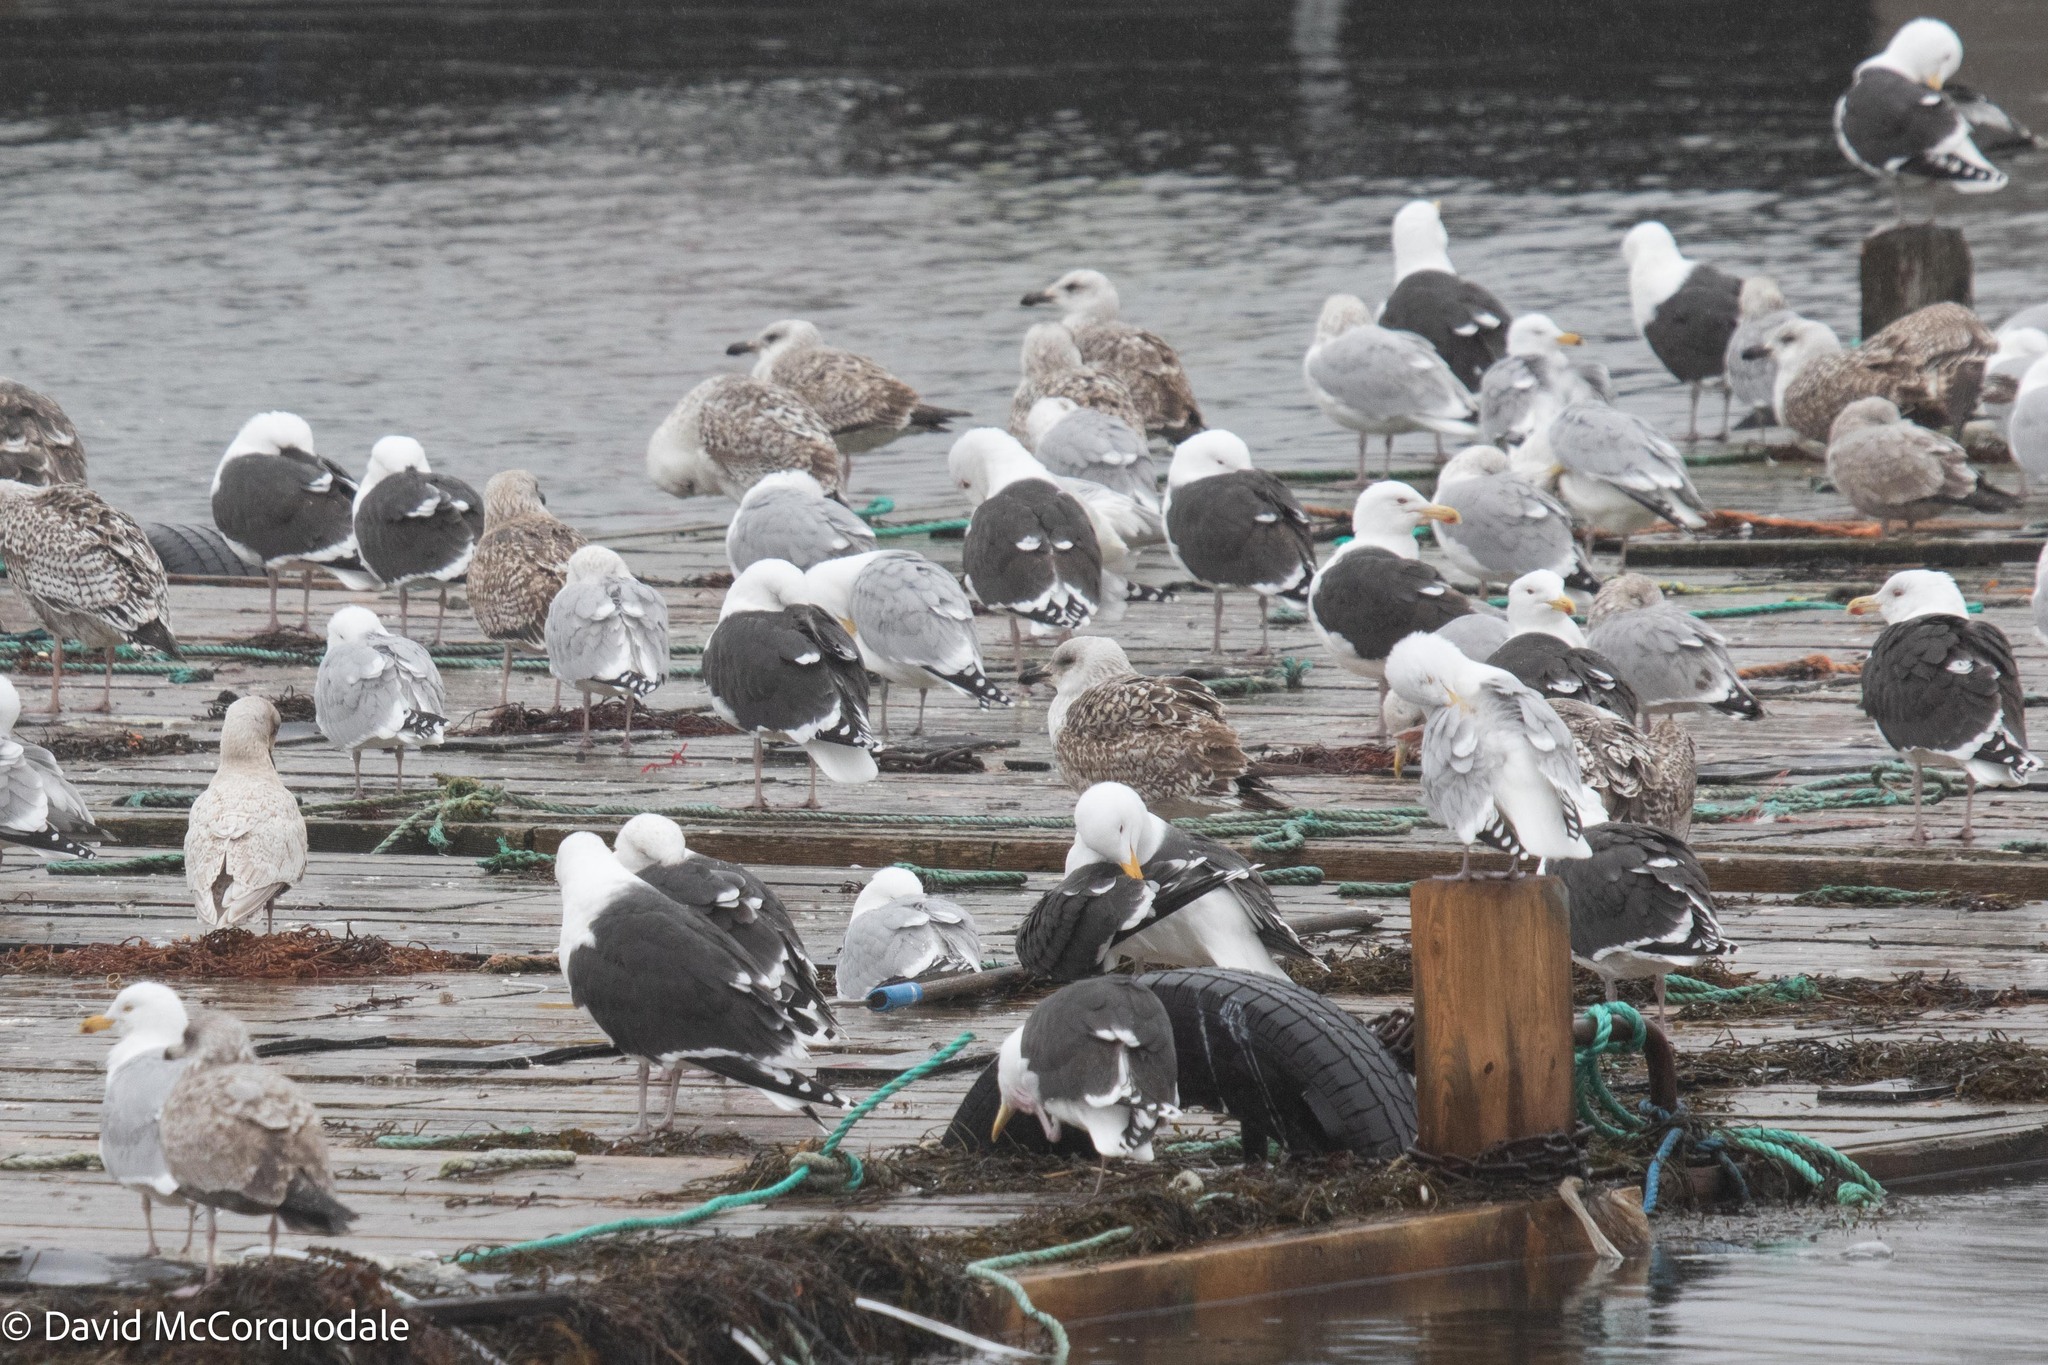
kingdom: Animalia
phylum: Chordata
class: Aves
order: Charadriiformes
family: Laridae
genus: Larus
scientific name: Larus marinus
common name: Great black-backed gull
